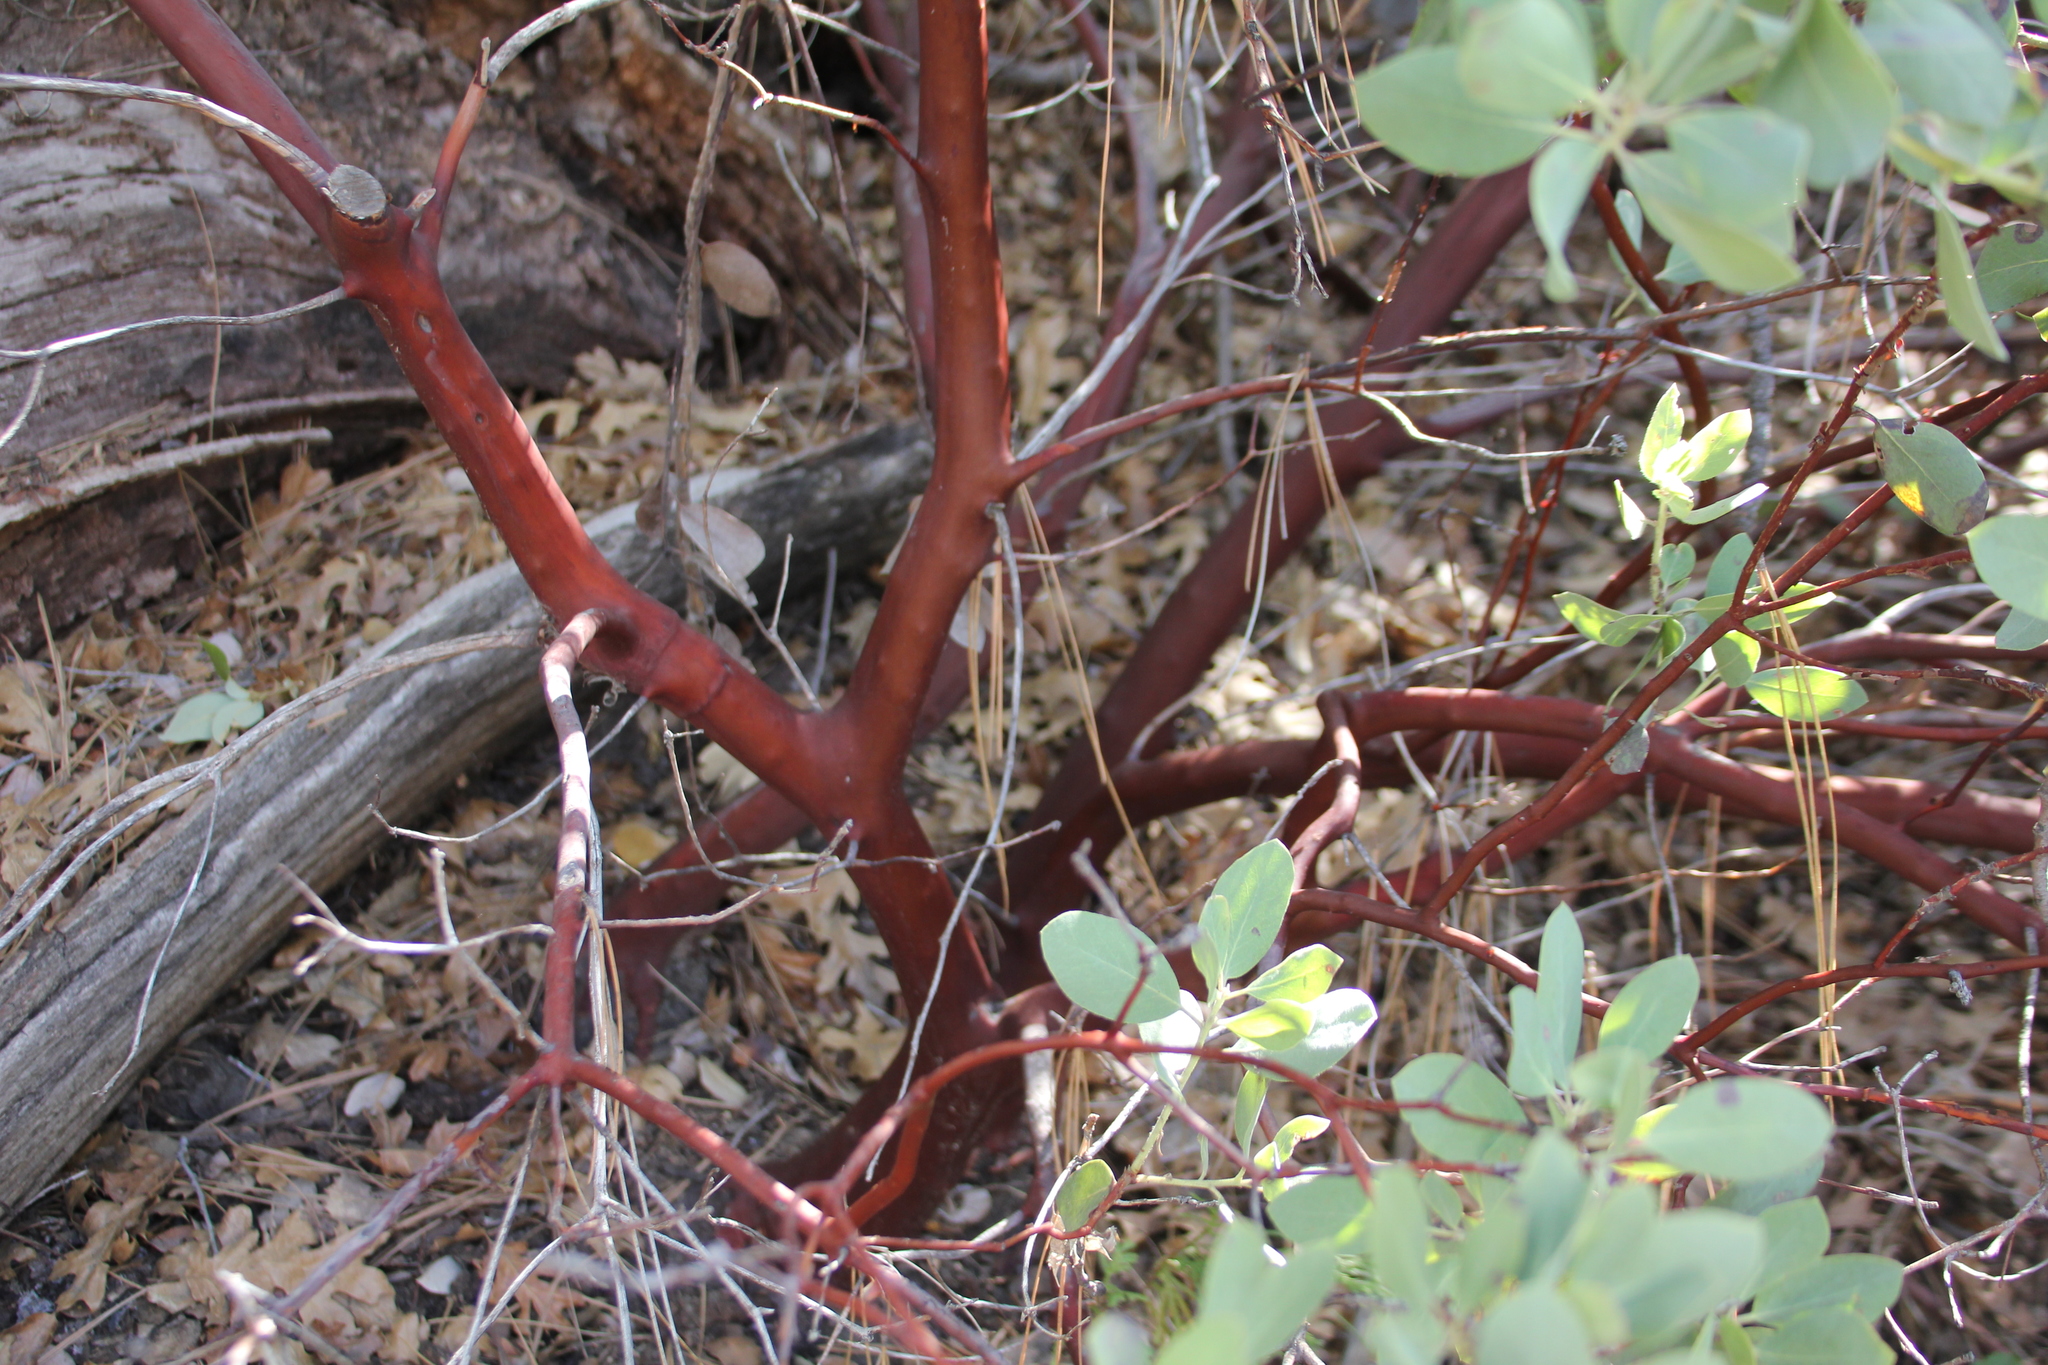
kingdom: Plantae
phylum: Tracheophyta
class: Magnoliopsida
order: Ericales
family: Ericaceae
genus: Arctostaphylos
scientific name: Arctostaphylos glandulosa
